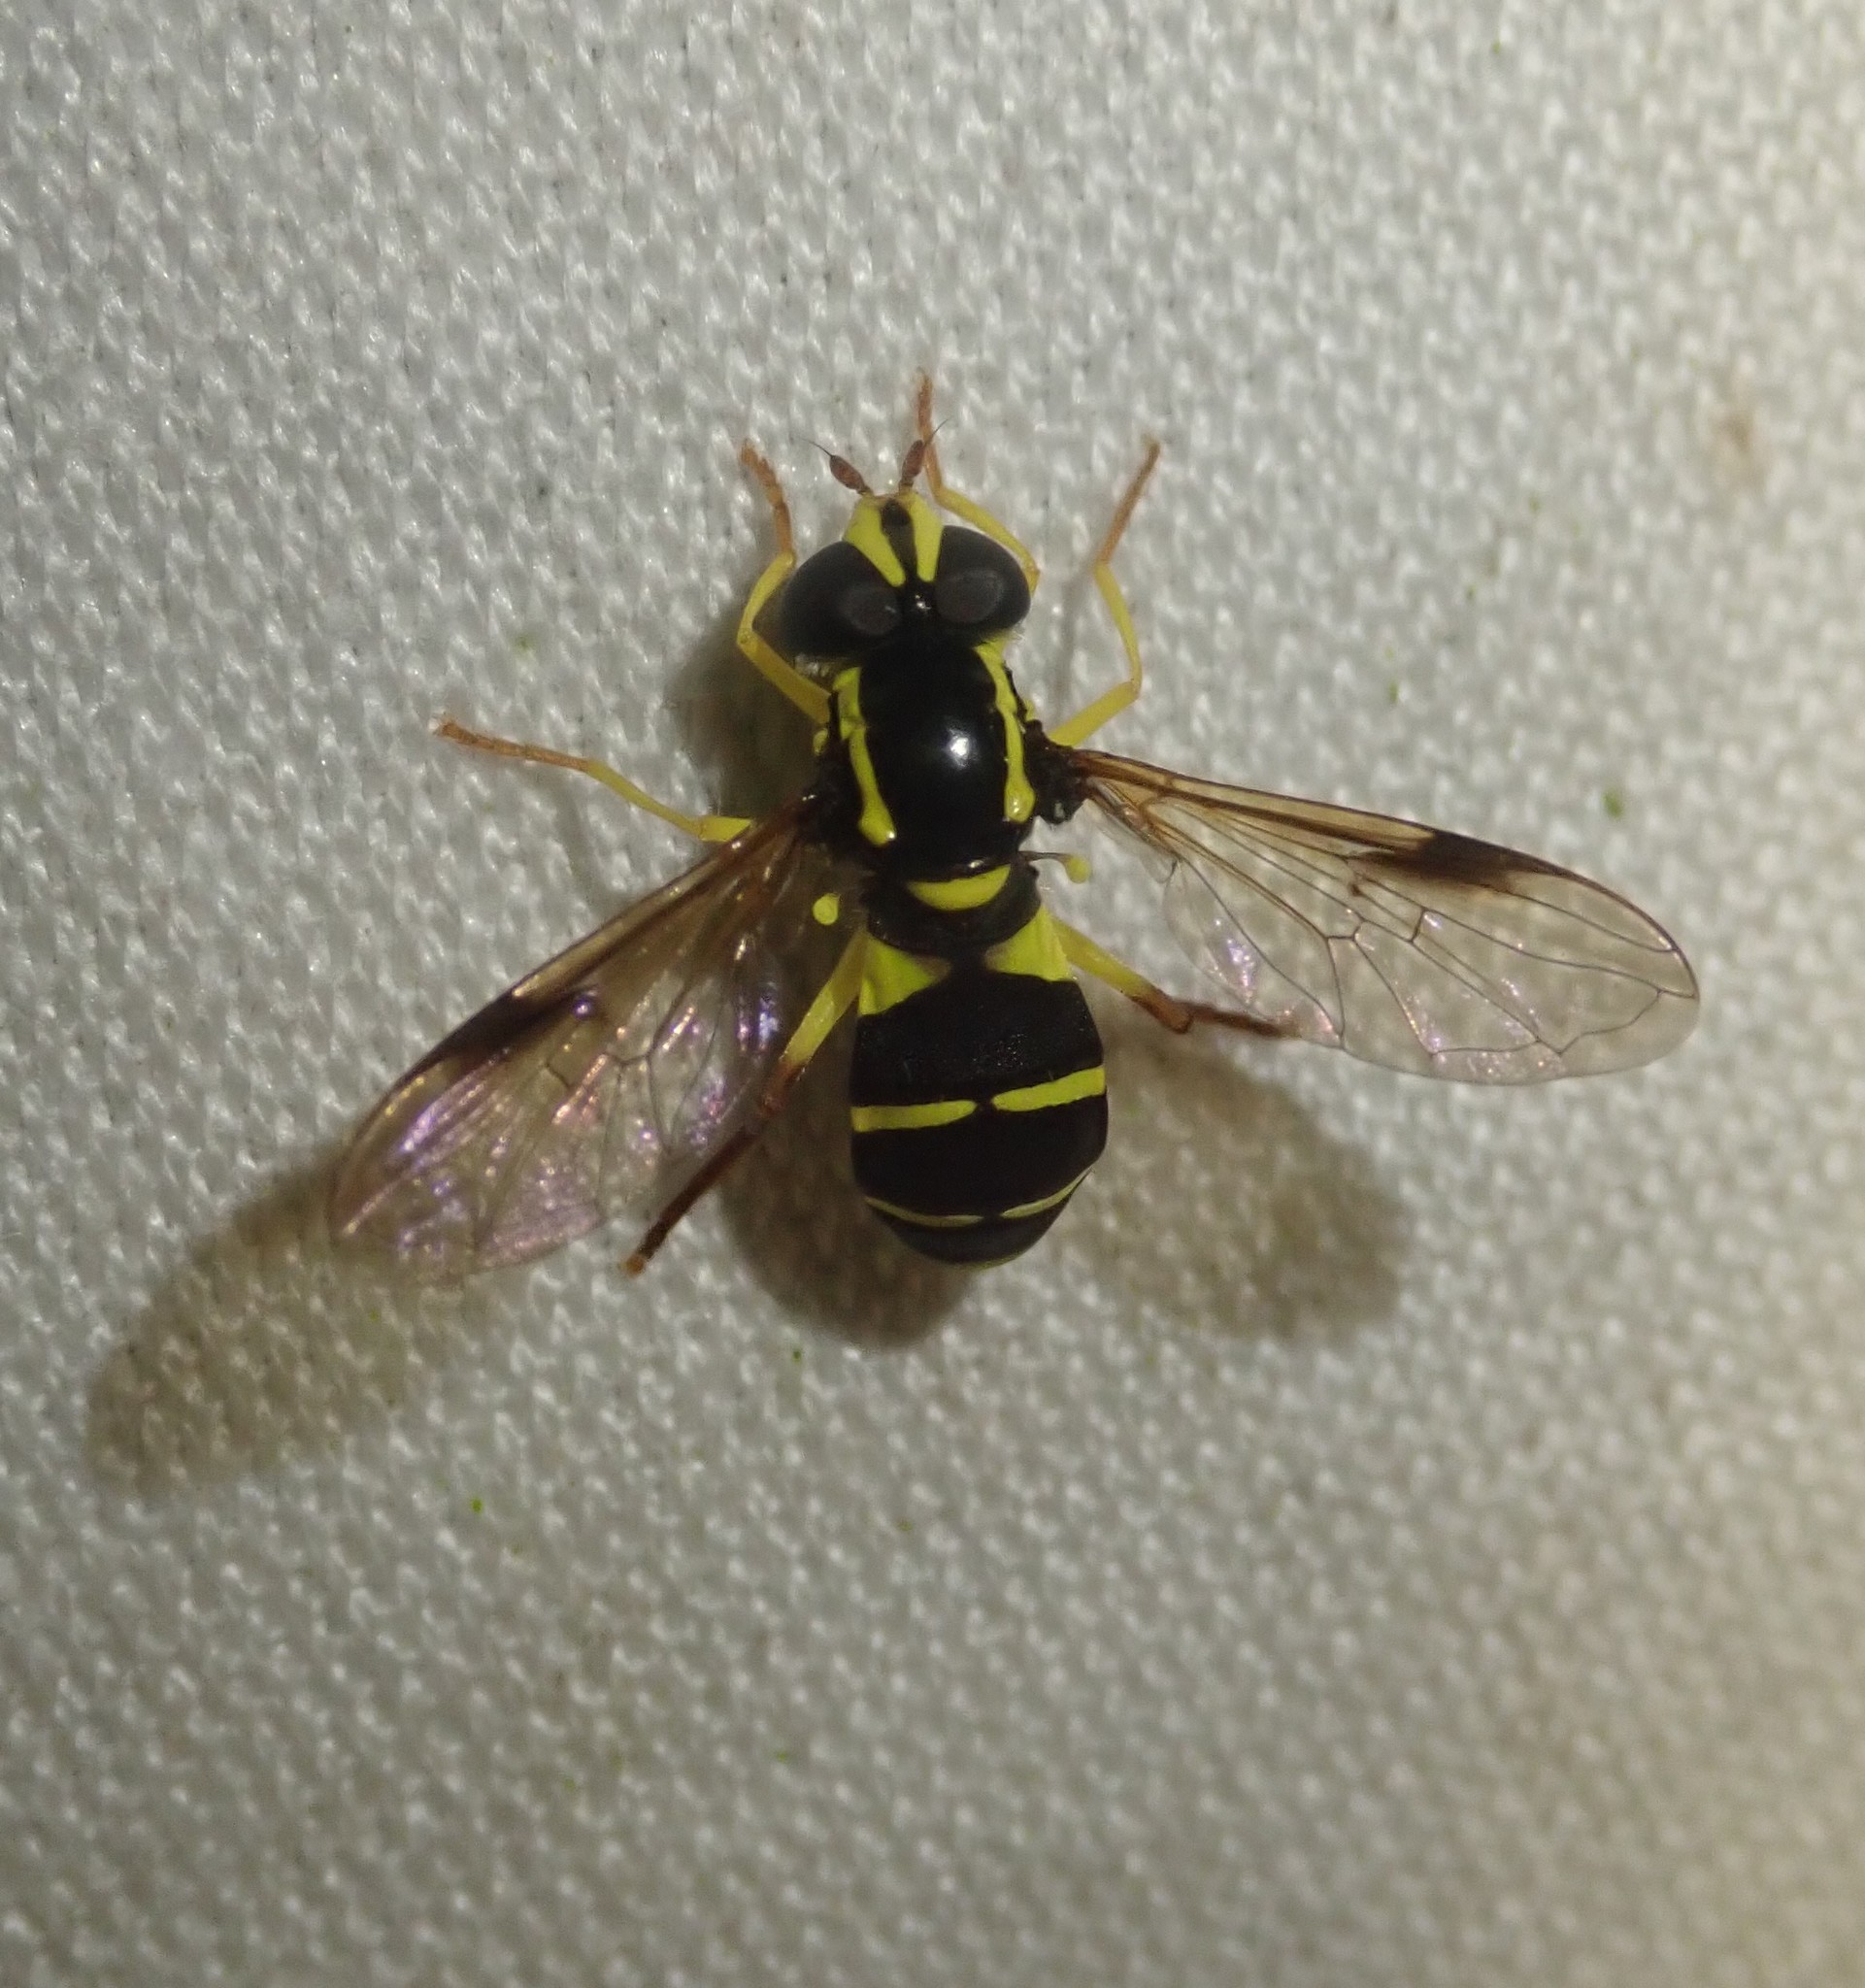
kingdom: Animalia
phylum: Arthropoda
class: Insecta
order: Diptera
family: Syrphidae
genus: Philhelius
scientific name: Philhelius pedissequum
